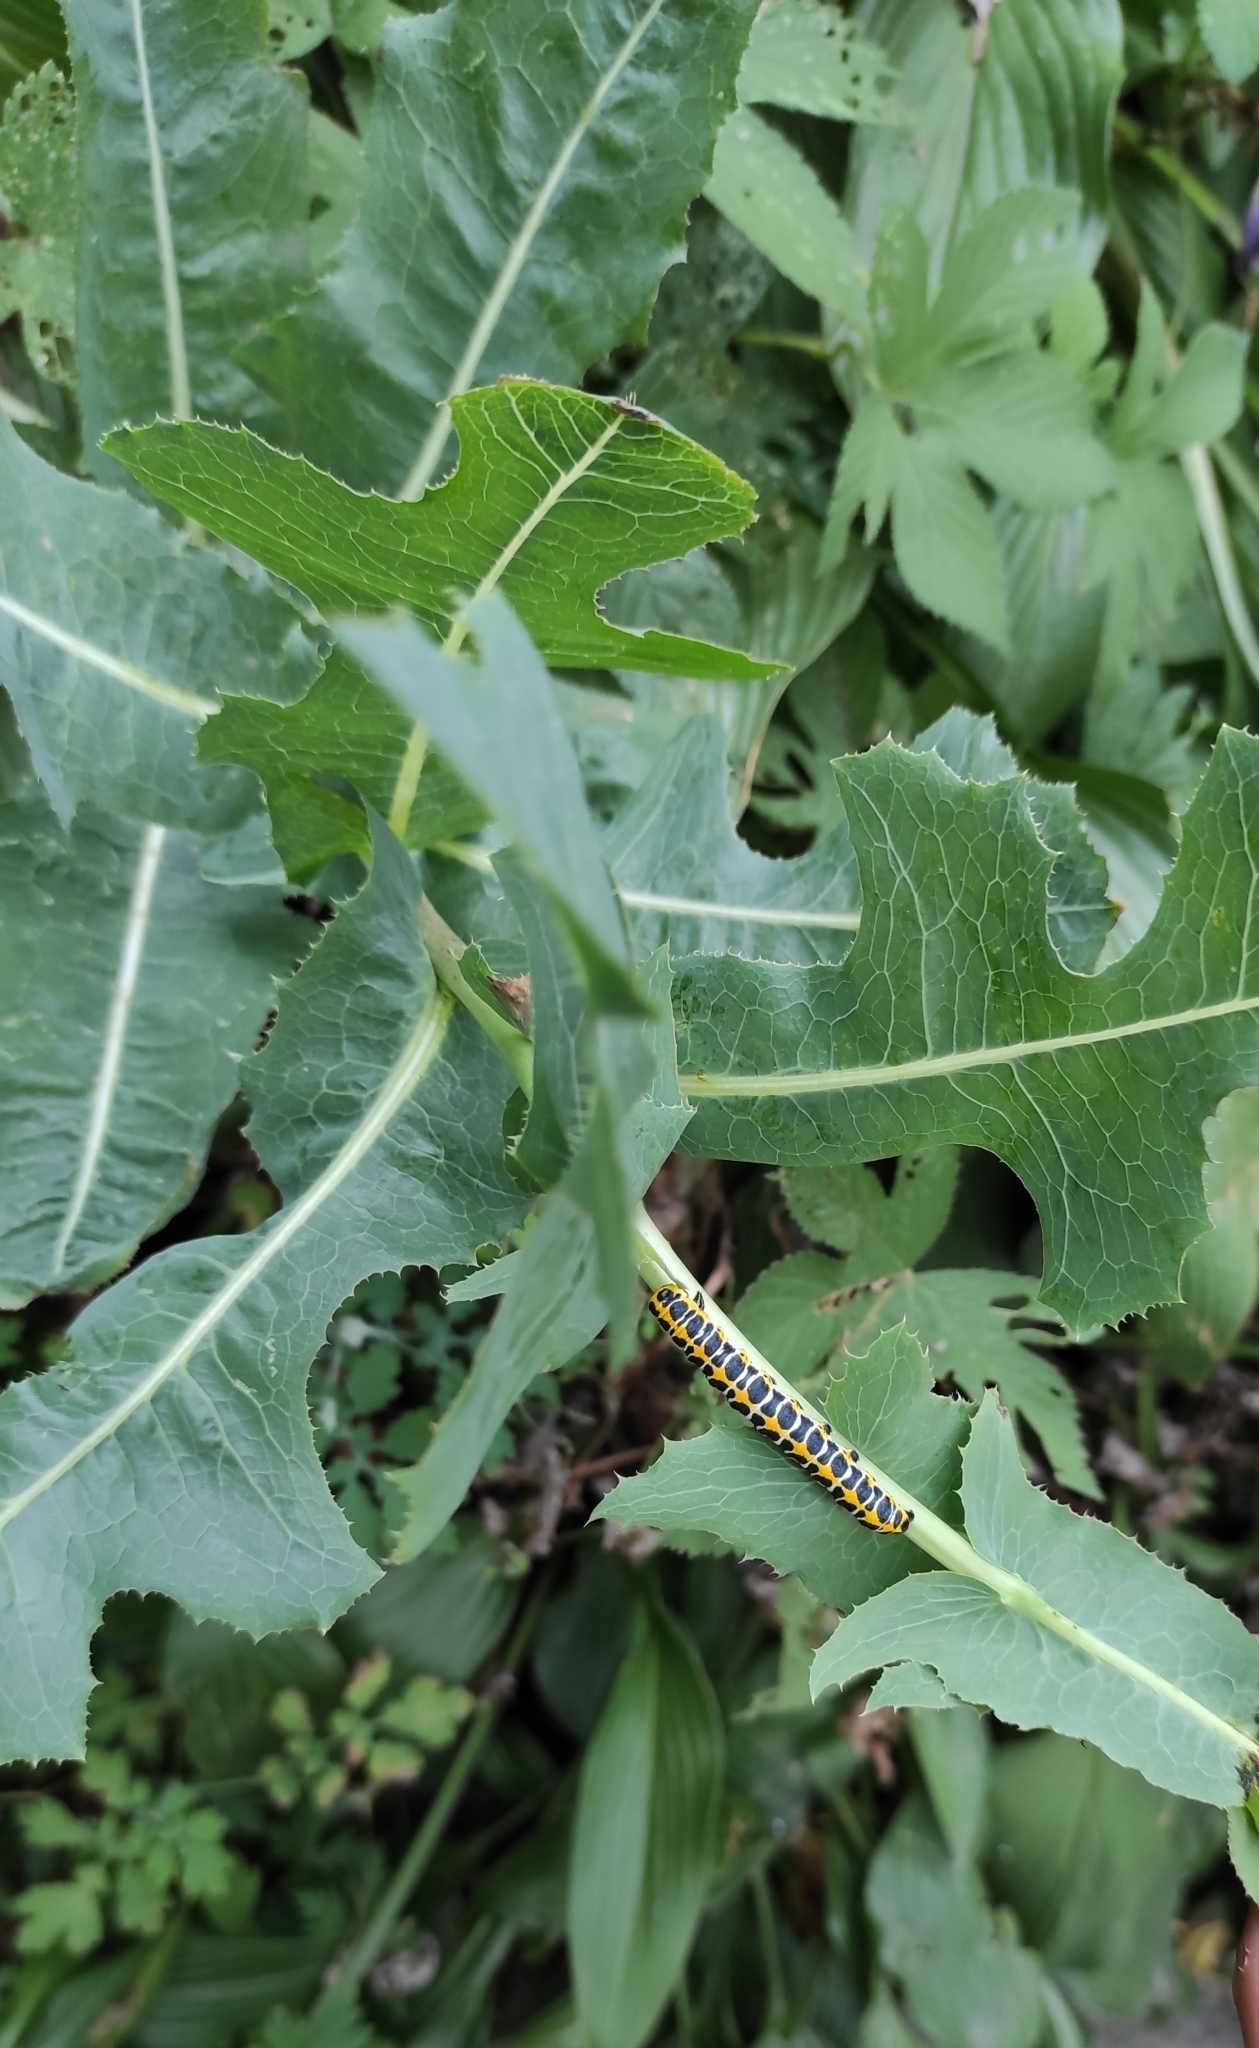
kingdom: Animalia
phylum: Arthropoda
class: Insecta
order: Lepidoptera
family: Noctuidae
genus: Cucullia
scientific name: Cucullia lactucae
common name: Lettuce shark
